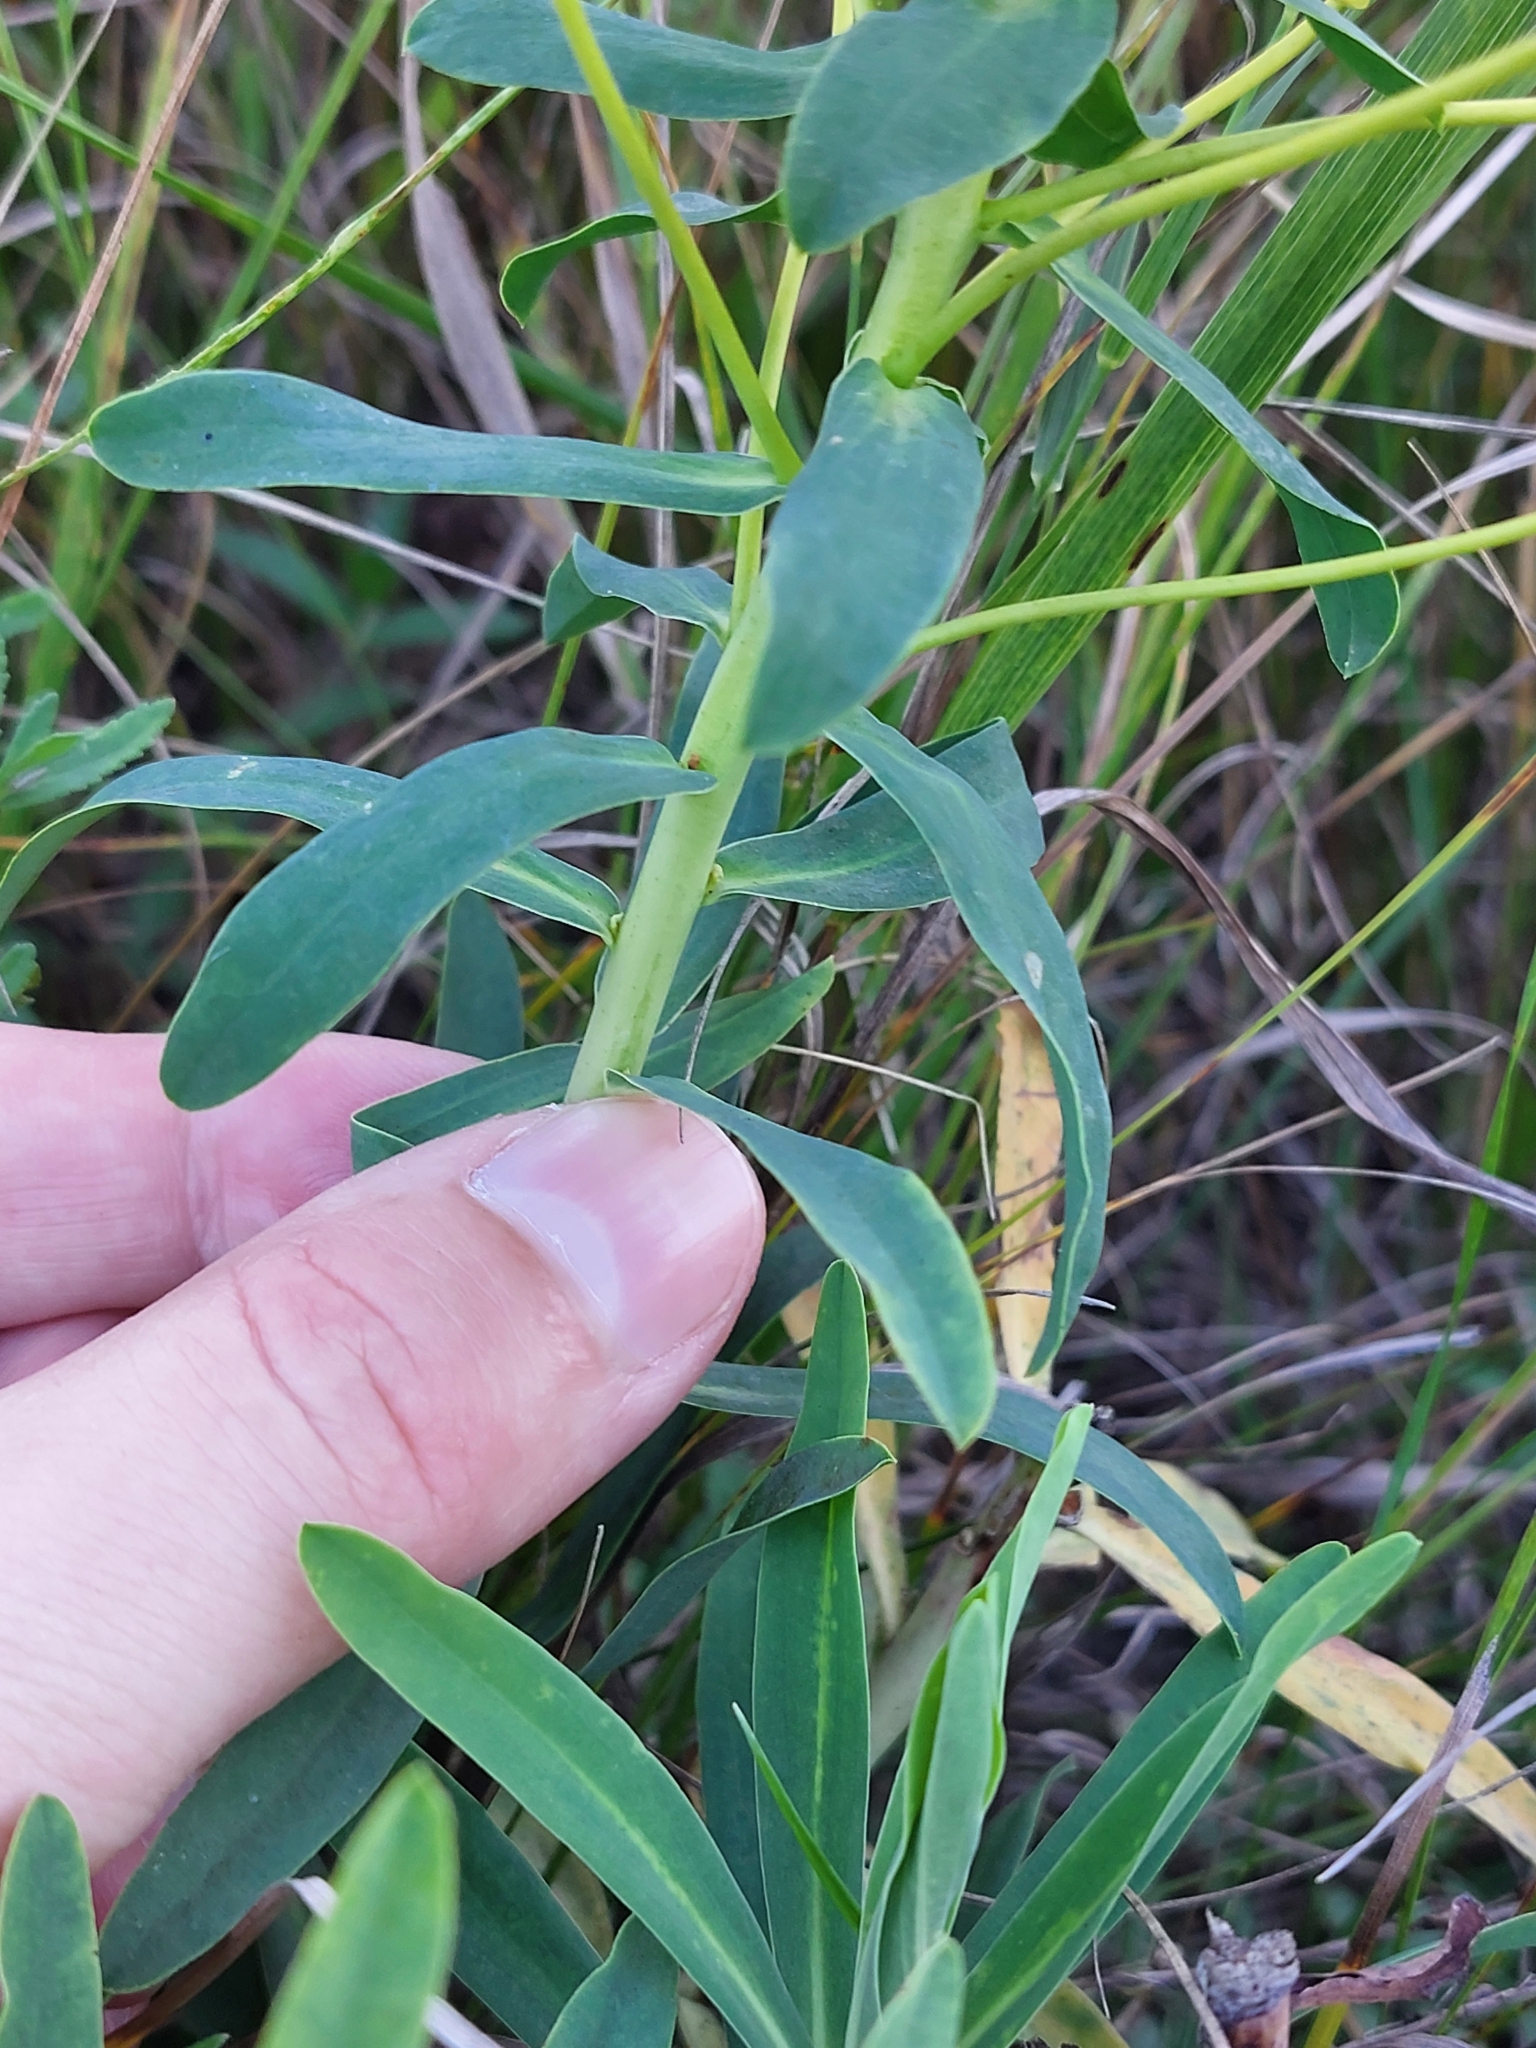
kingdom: Plantae
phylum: Tracheophyta
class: Magnoliopsida
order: Malpighiales
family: Euphorbiaceae
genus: Euphorbia
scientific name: Euphorbia stepposa
